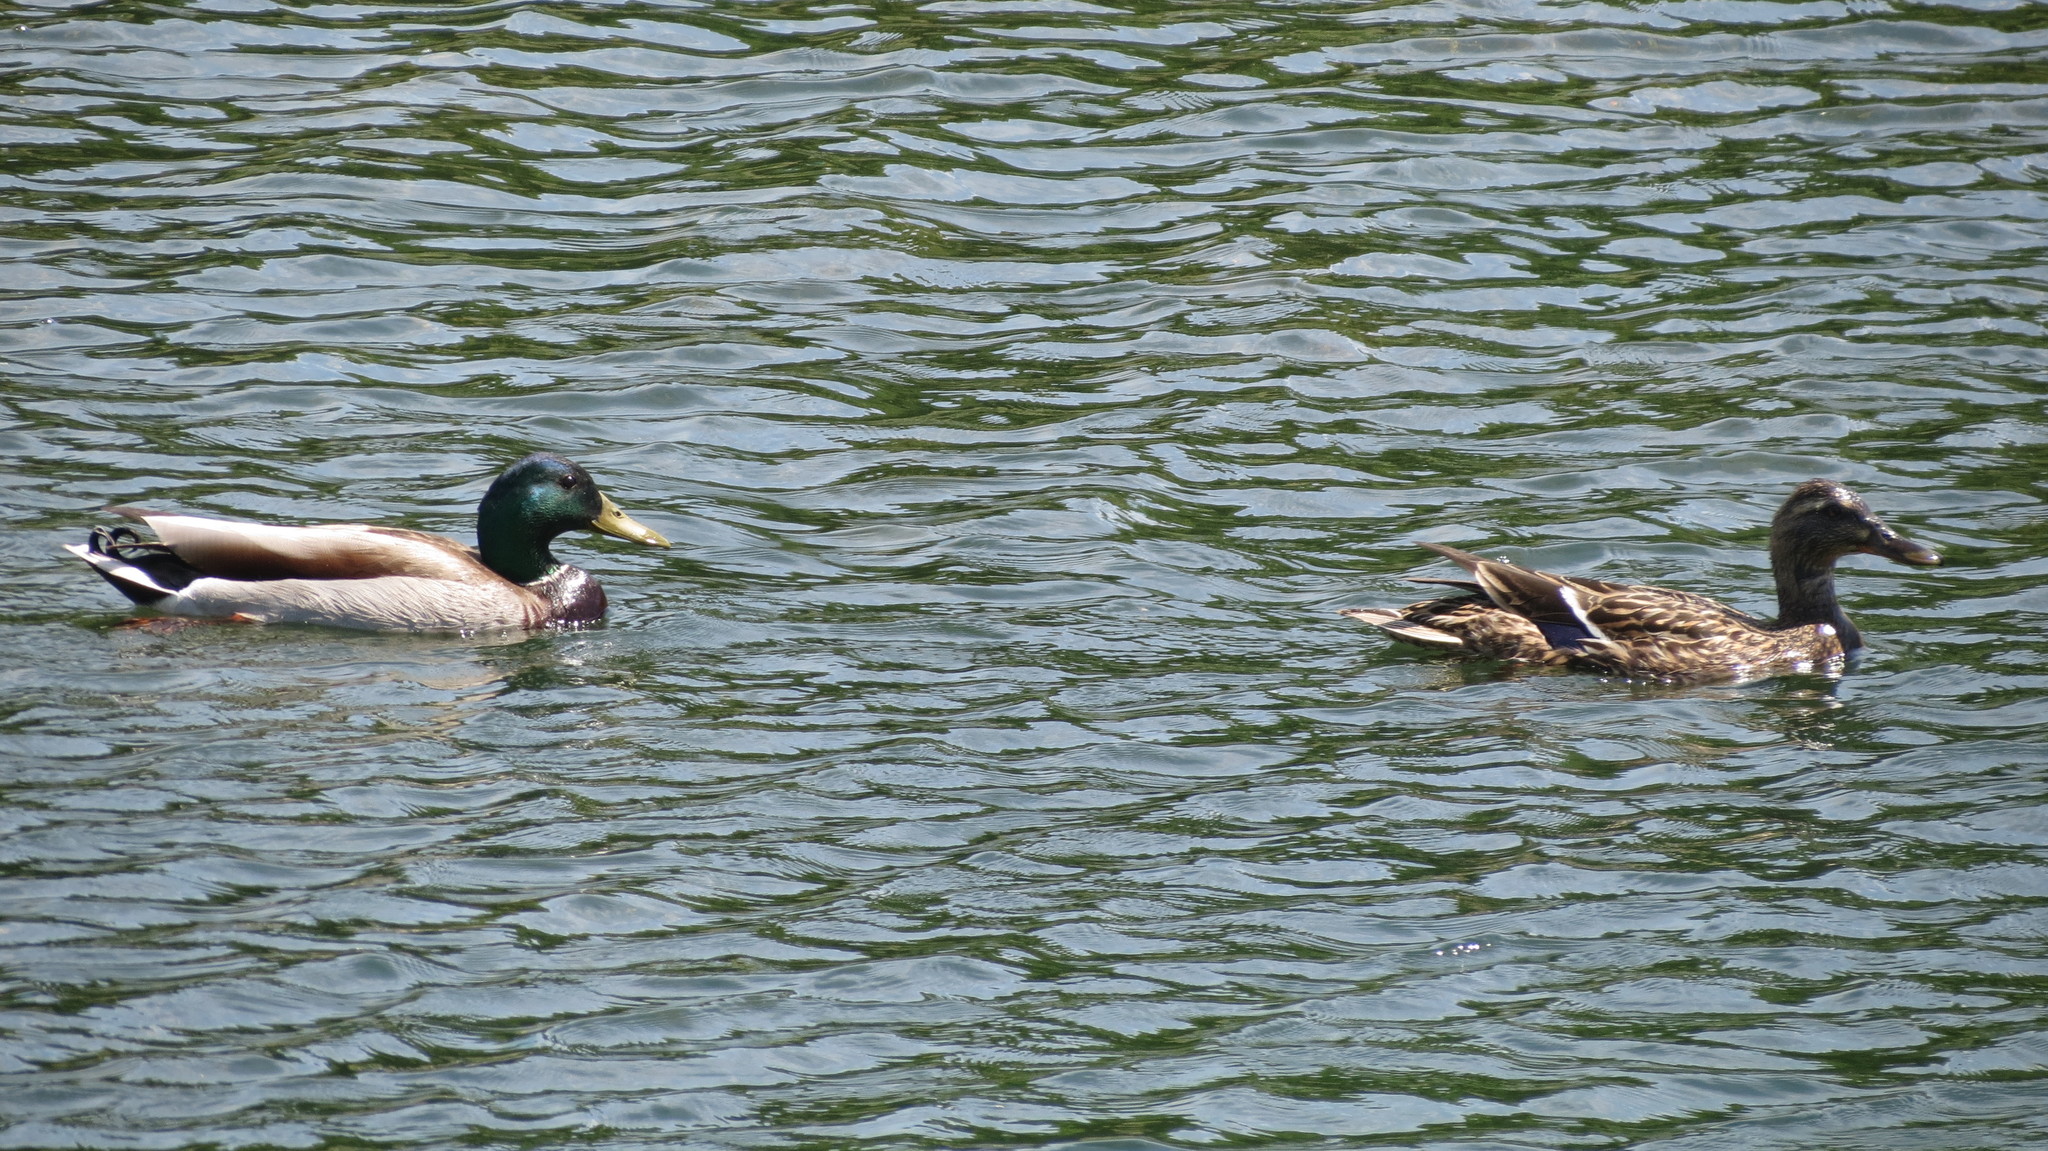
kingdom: Animalia
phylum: Chordata
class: Aves
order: Anseriformes
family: Anatidae
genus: Anas
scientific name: Anas platyrhynchos
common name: Mallard
